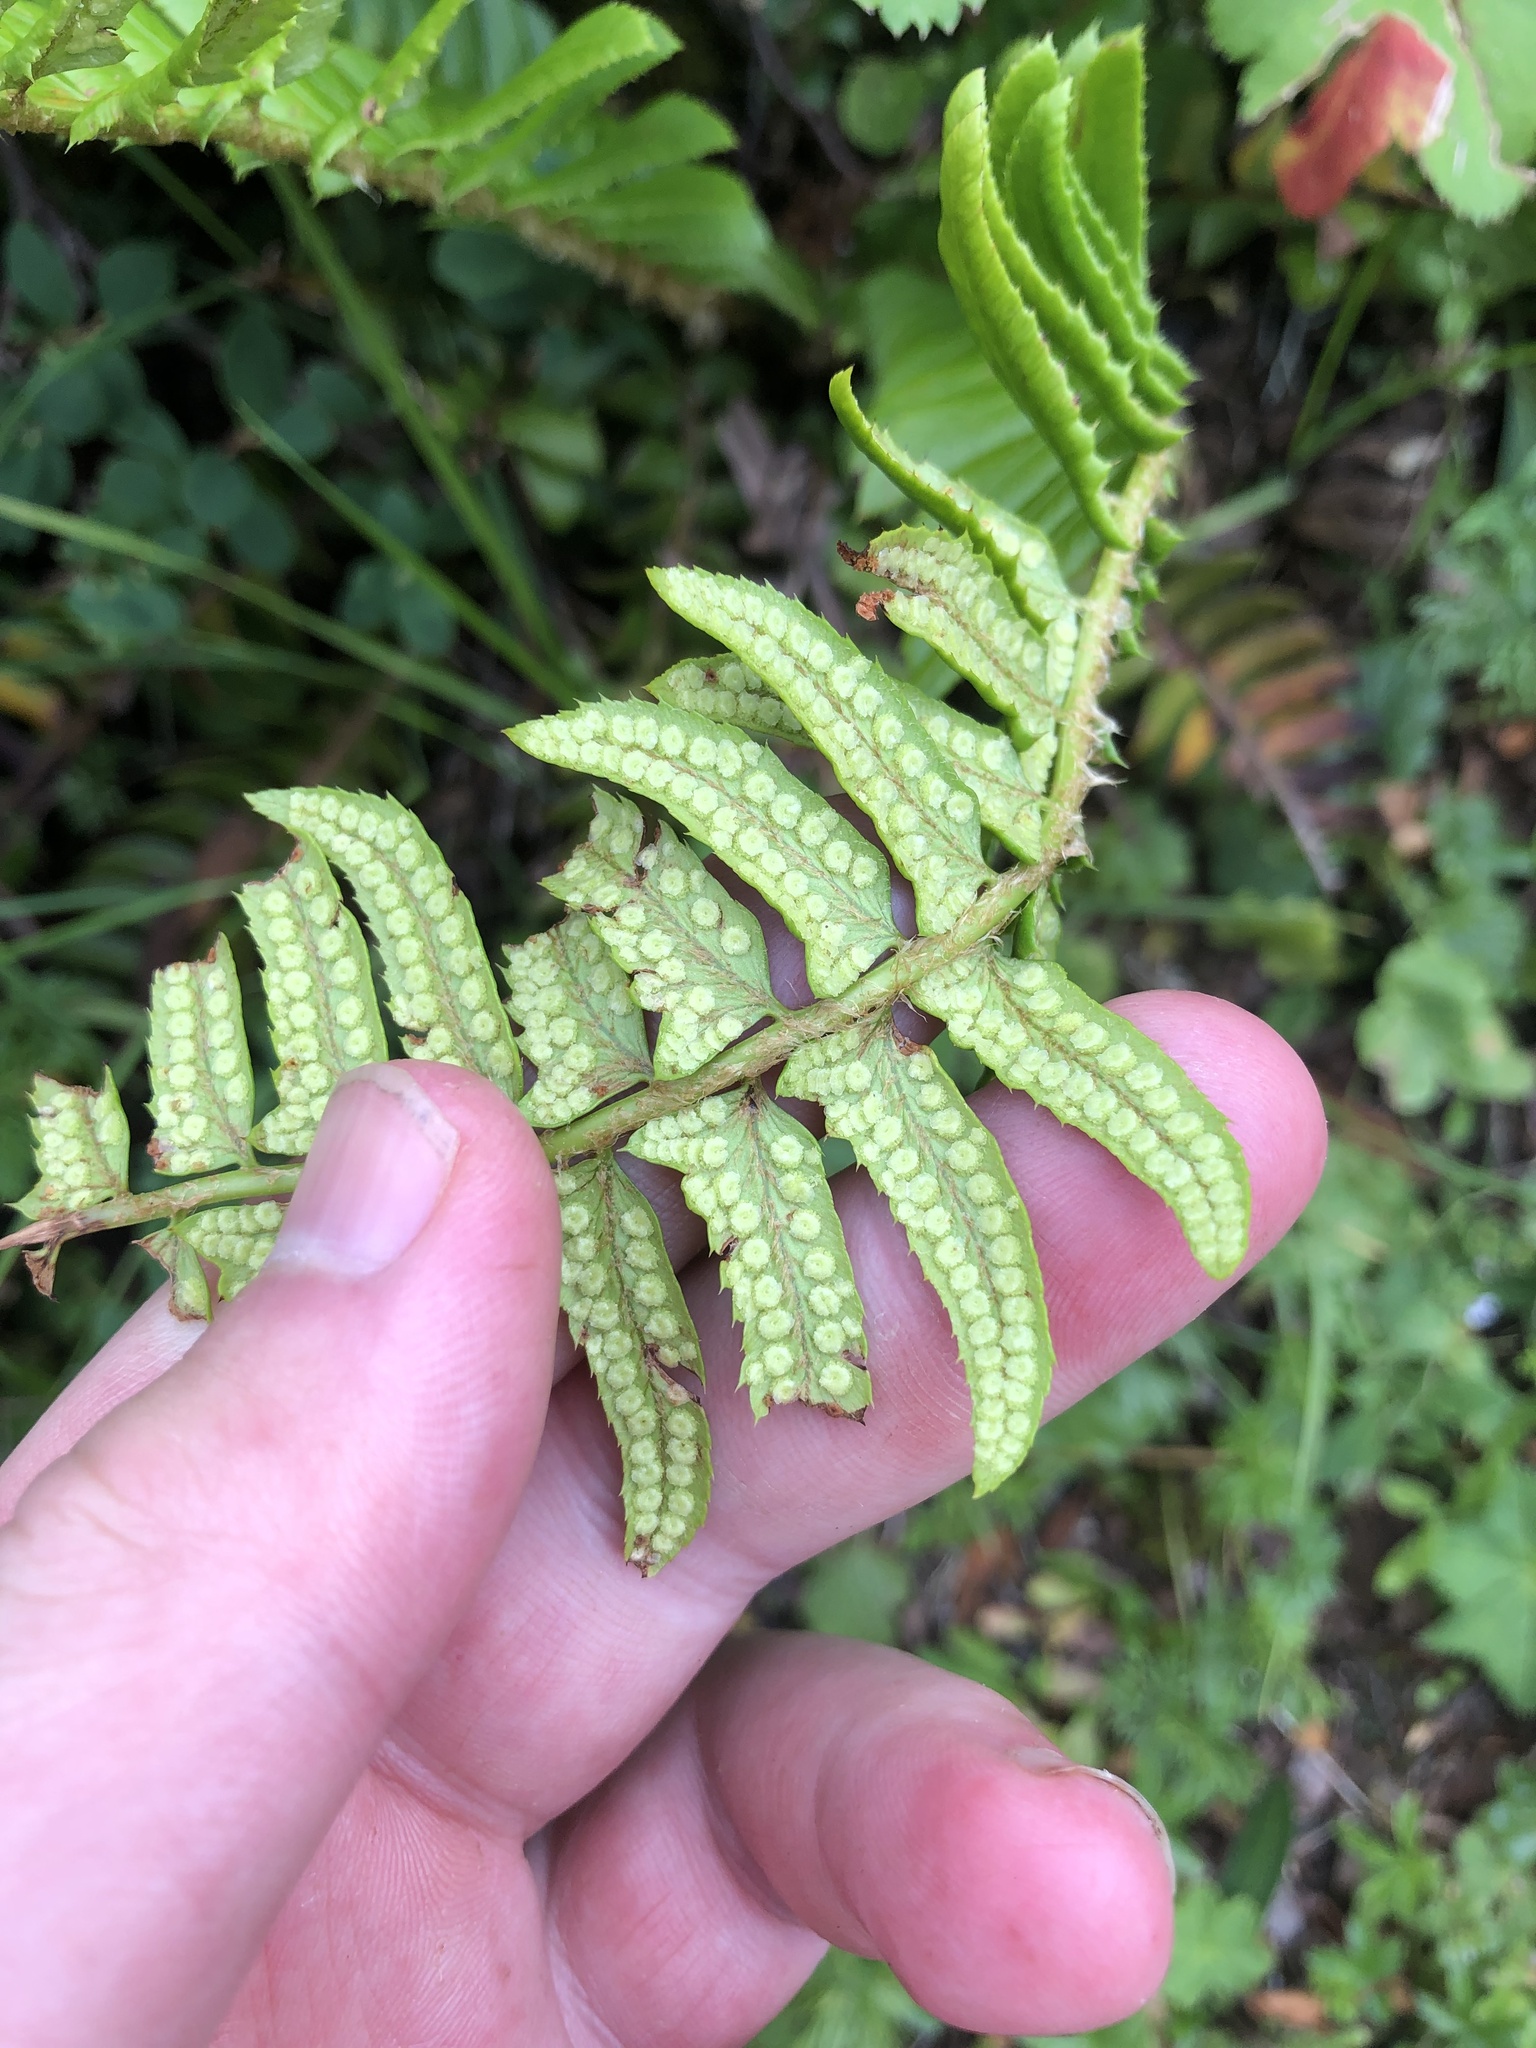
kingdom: Plantae
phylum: Tracheophyta
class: Polypodiopsida
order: Polypodiales
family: Dryopteridaceae
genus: Polystichum
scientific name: Polystichum lonchitis
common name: Holly fern
